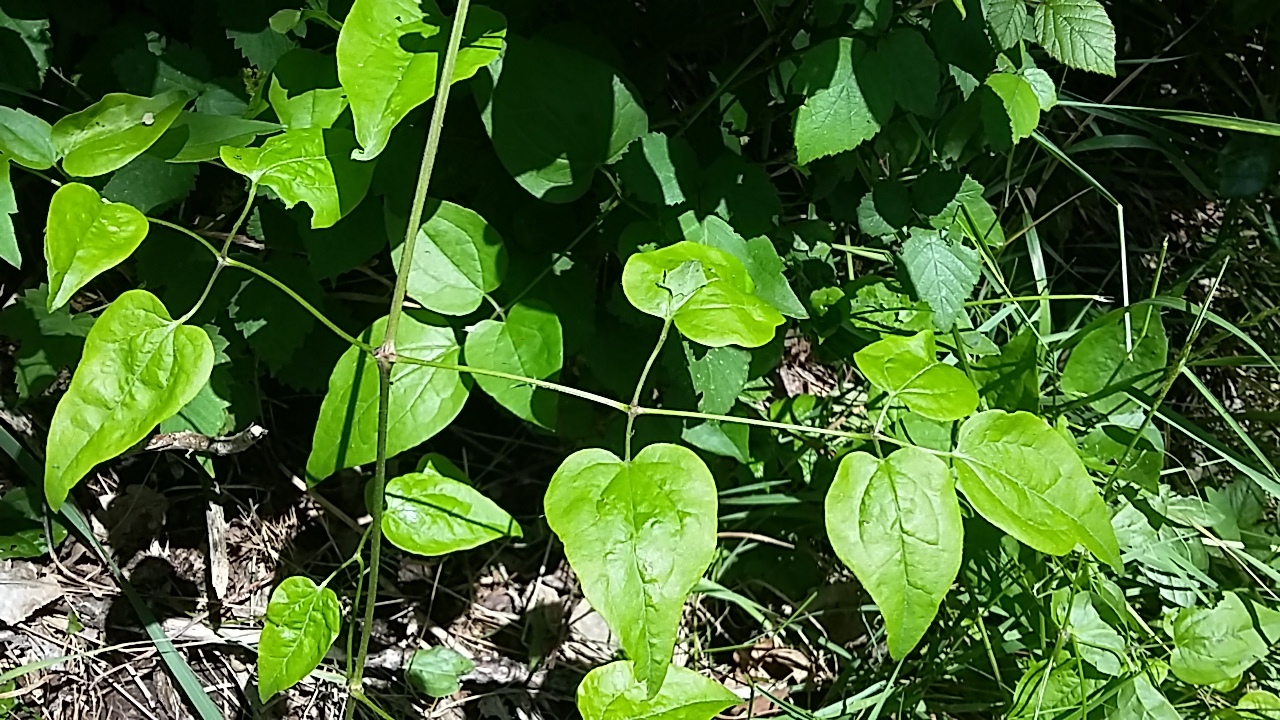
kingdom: Plantae
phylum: Tracheophyta
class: Magnoliopsida
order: Ranunculales
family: Ranunculaceae
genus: Clematis
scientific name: Clematis vitalba
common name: Evergreen clematis
